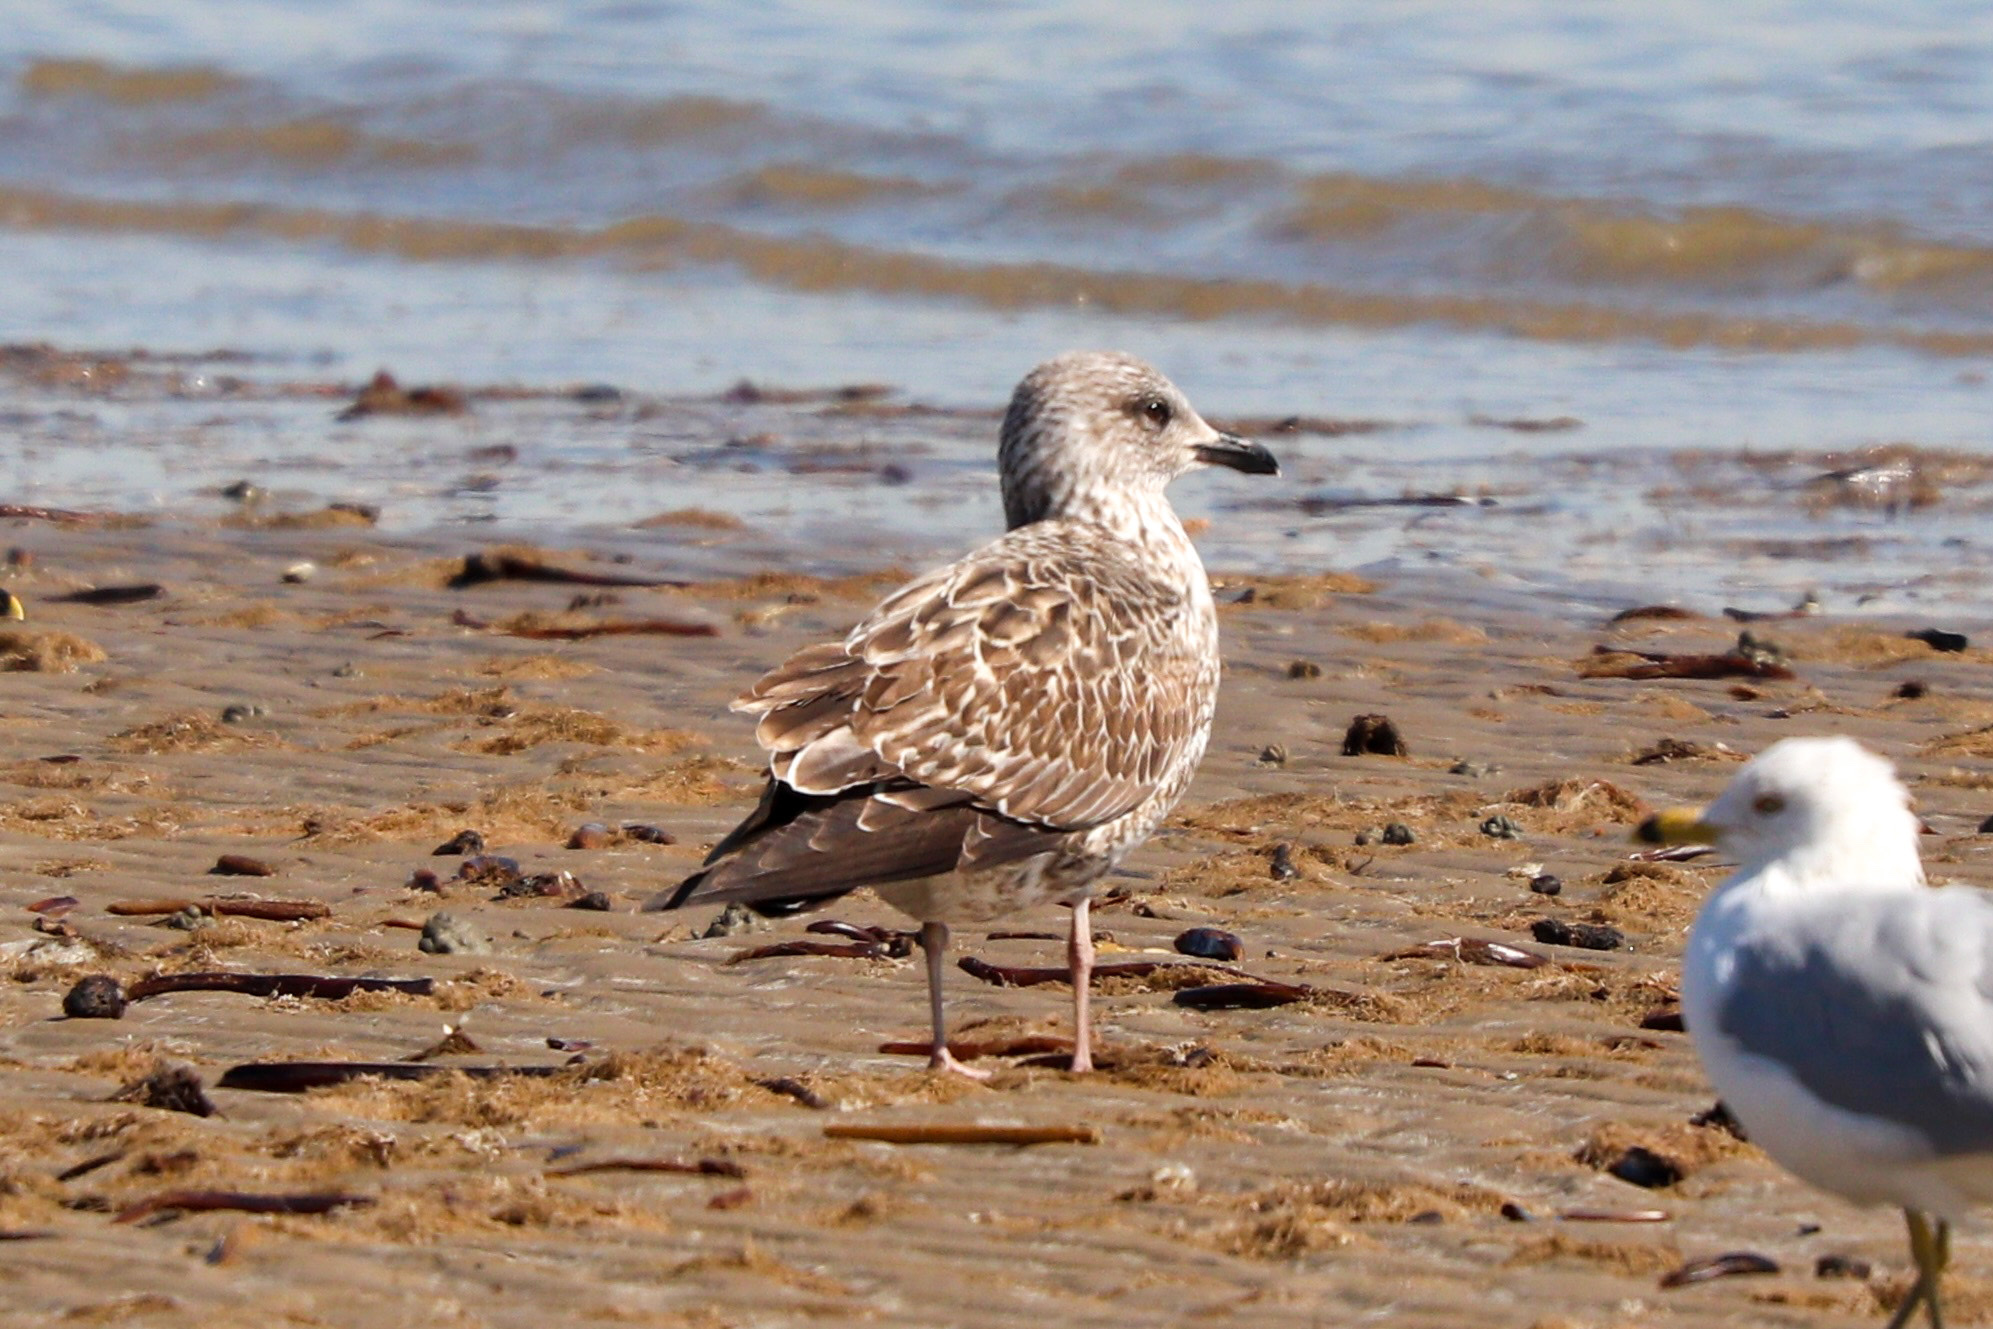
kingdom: Animalia
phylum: Chordata
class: Aves
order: Charadriiformes
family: Laridae
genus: Larus
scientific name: Larus fuscus
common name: Lesser black-backed gull
